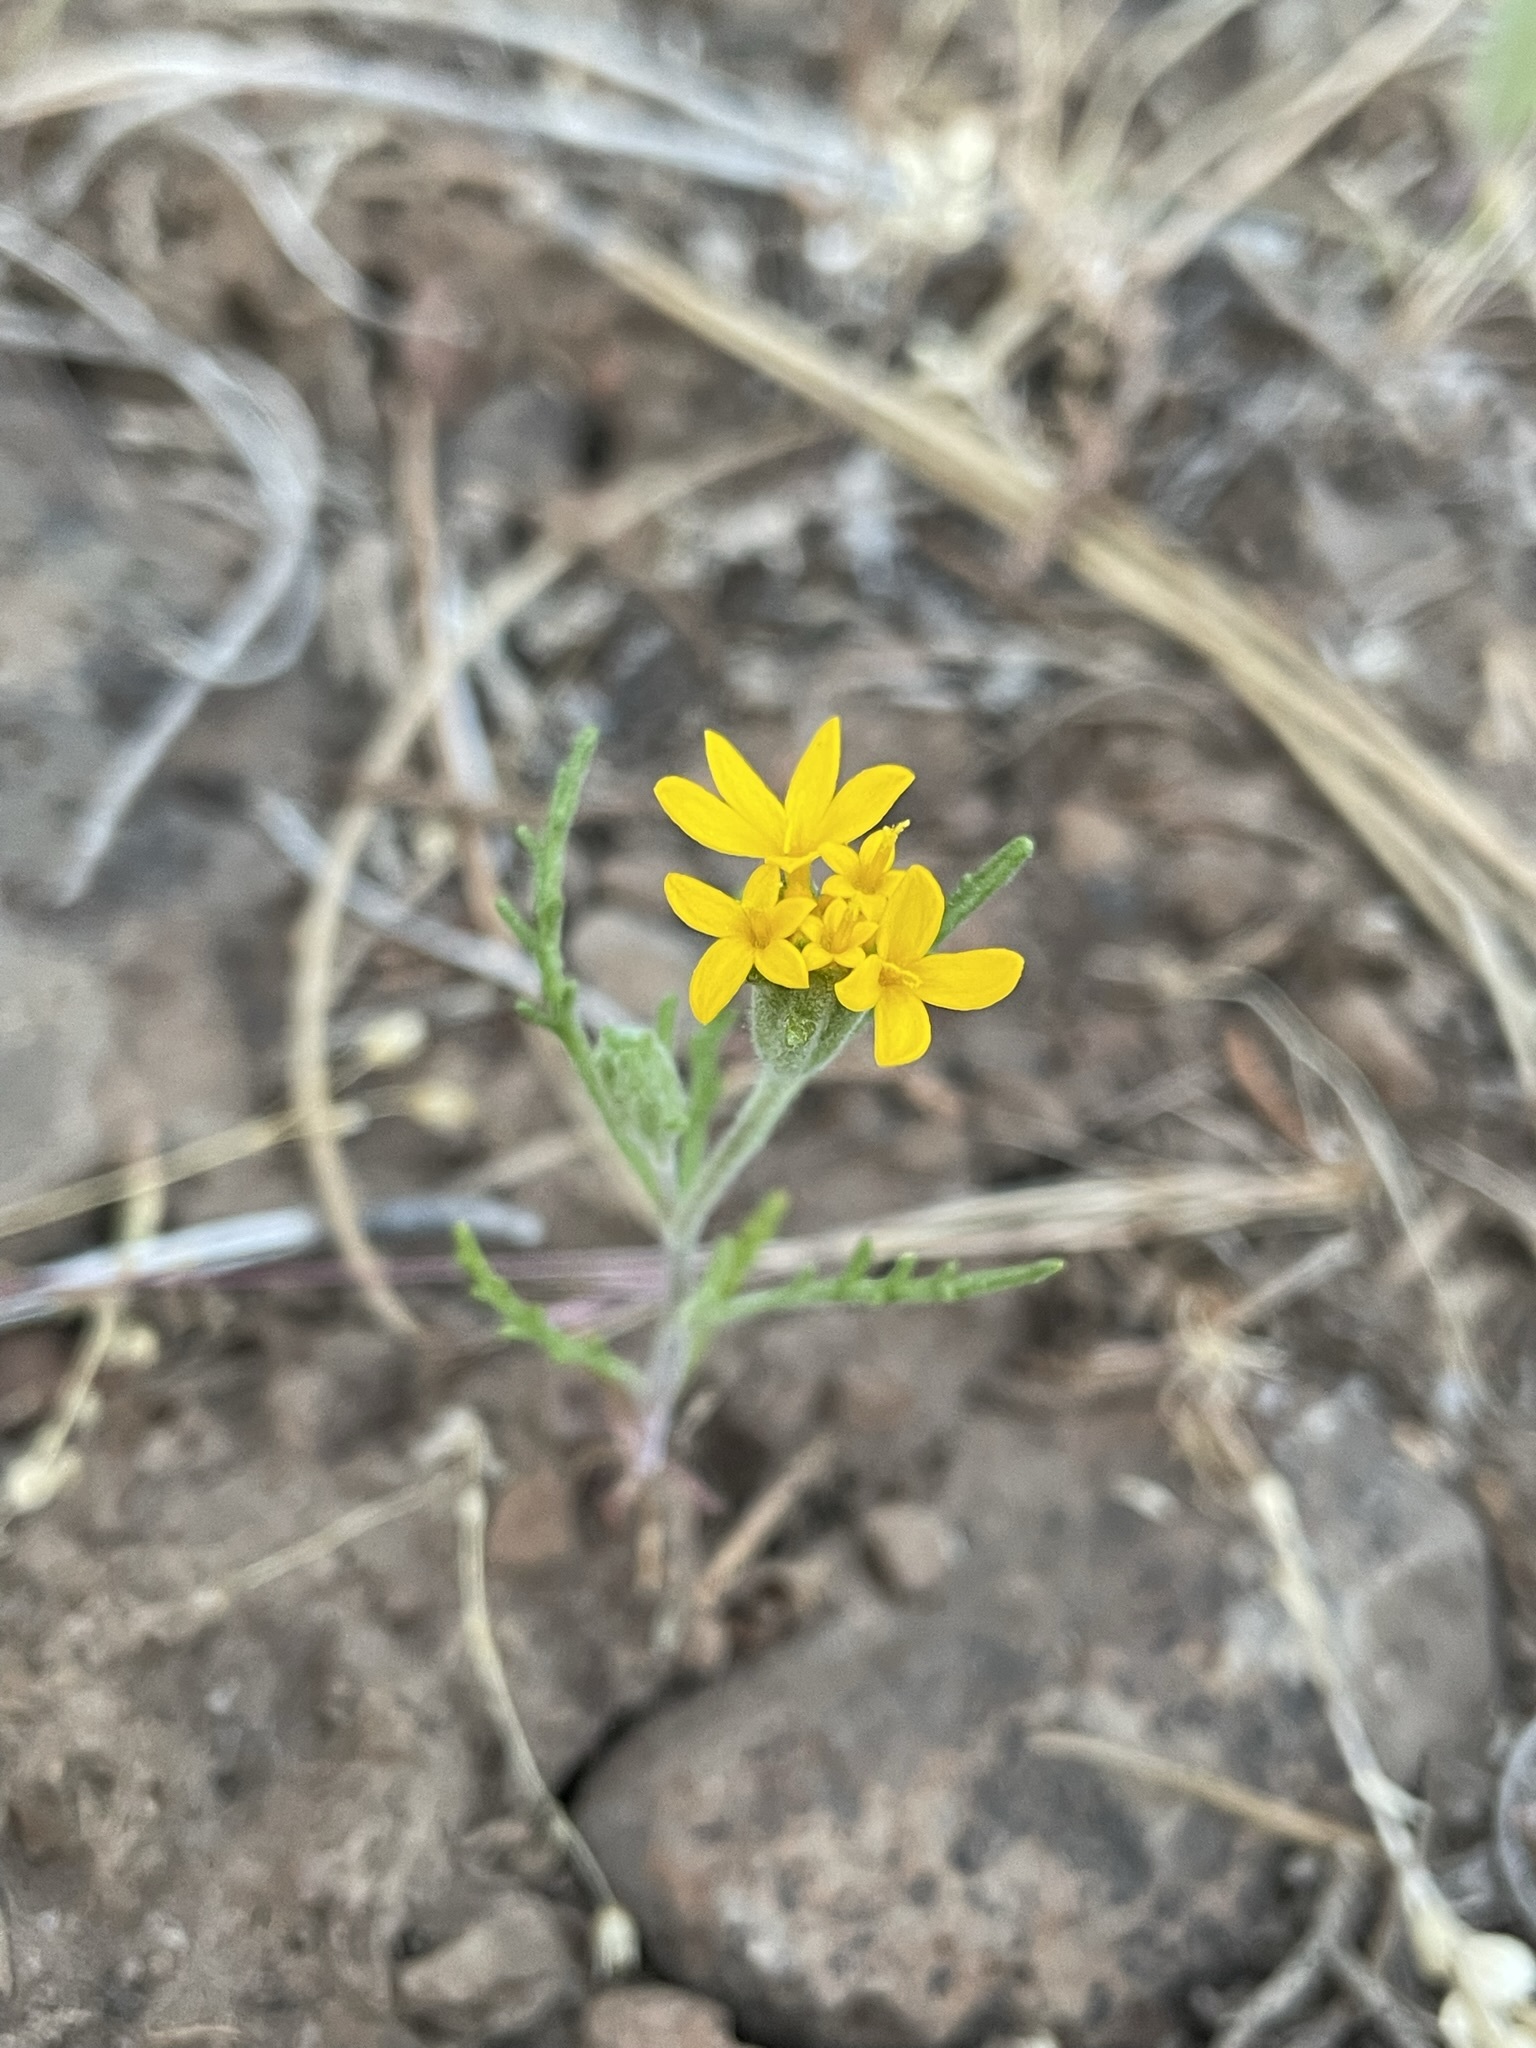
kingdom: Plantae
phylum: Tracheophyta
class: Magnoliopsida
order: Asterales
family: Asteraceae
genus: Chaenactis
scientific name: Chaenactis glabriuscula
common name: Yellow pincushion
